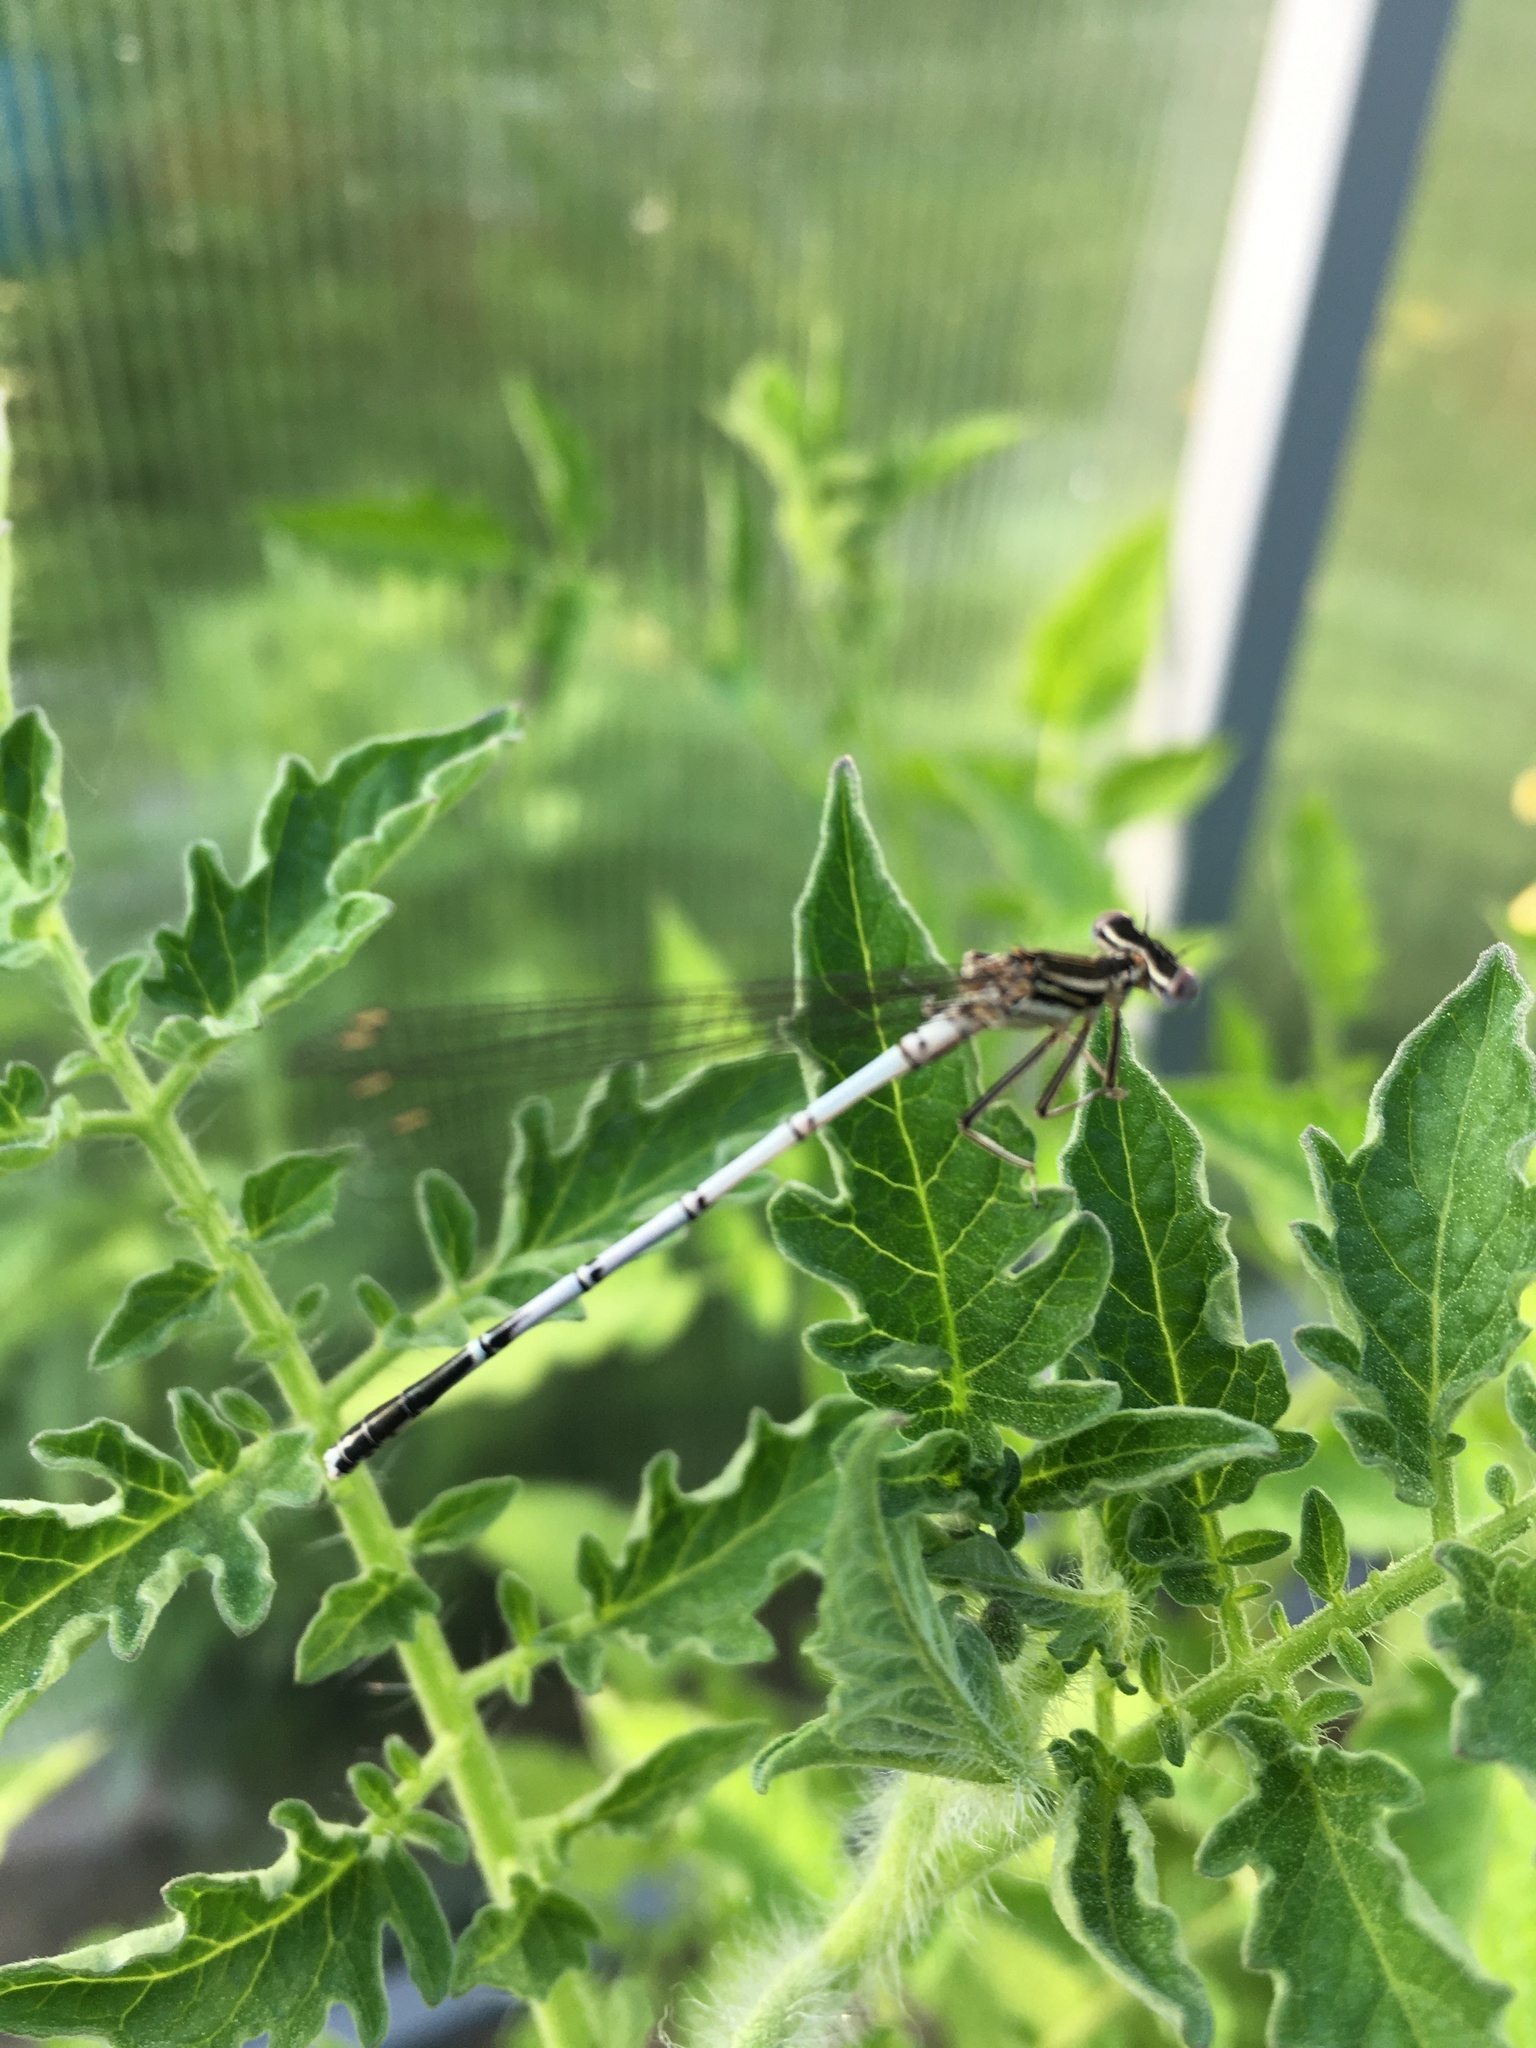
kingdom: Animalia
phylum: Arthropoda
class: Insecta
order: Odonata
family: Platycnemididae
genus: Platycnemis
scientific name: Platycnemis pennipes
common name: White-legged damselfly
